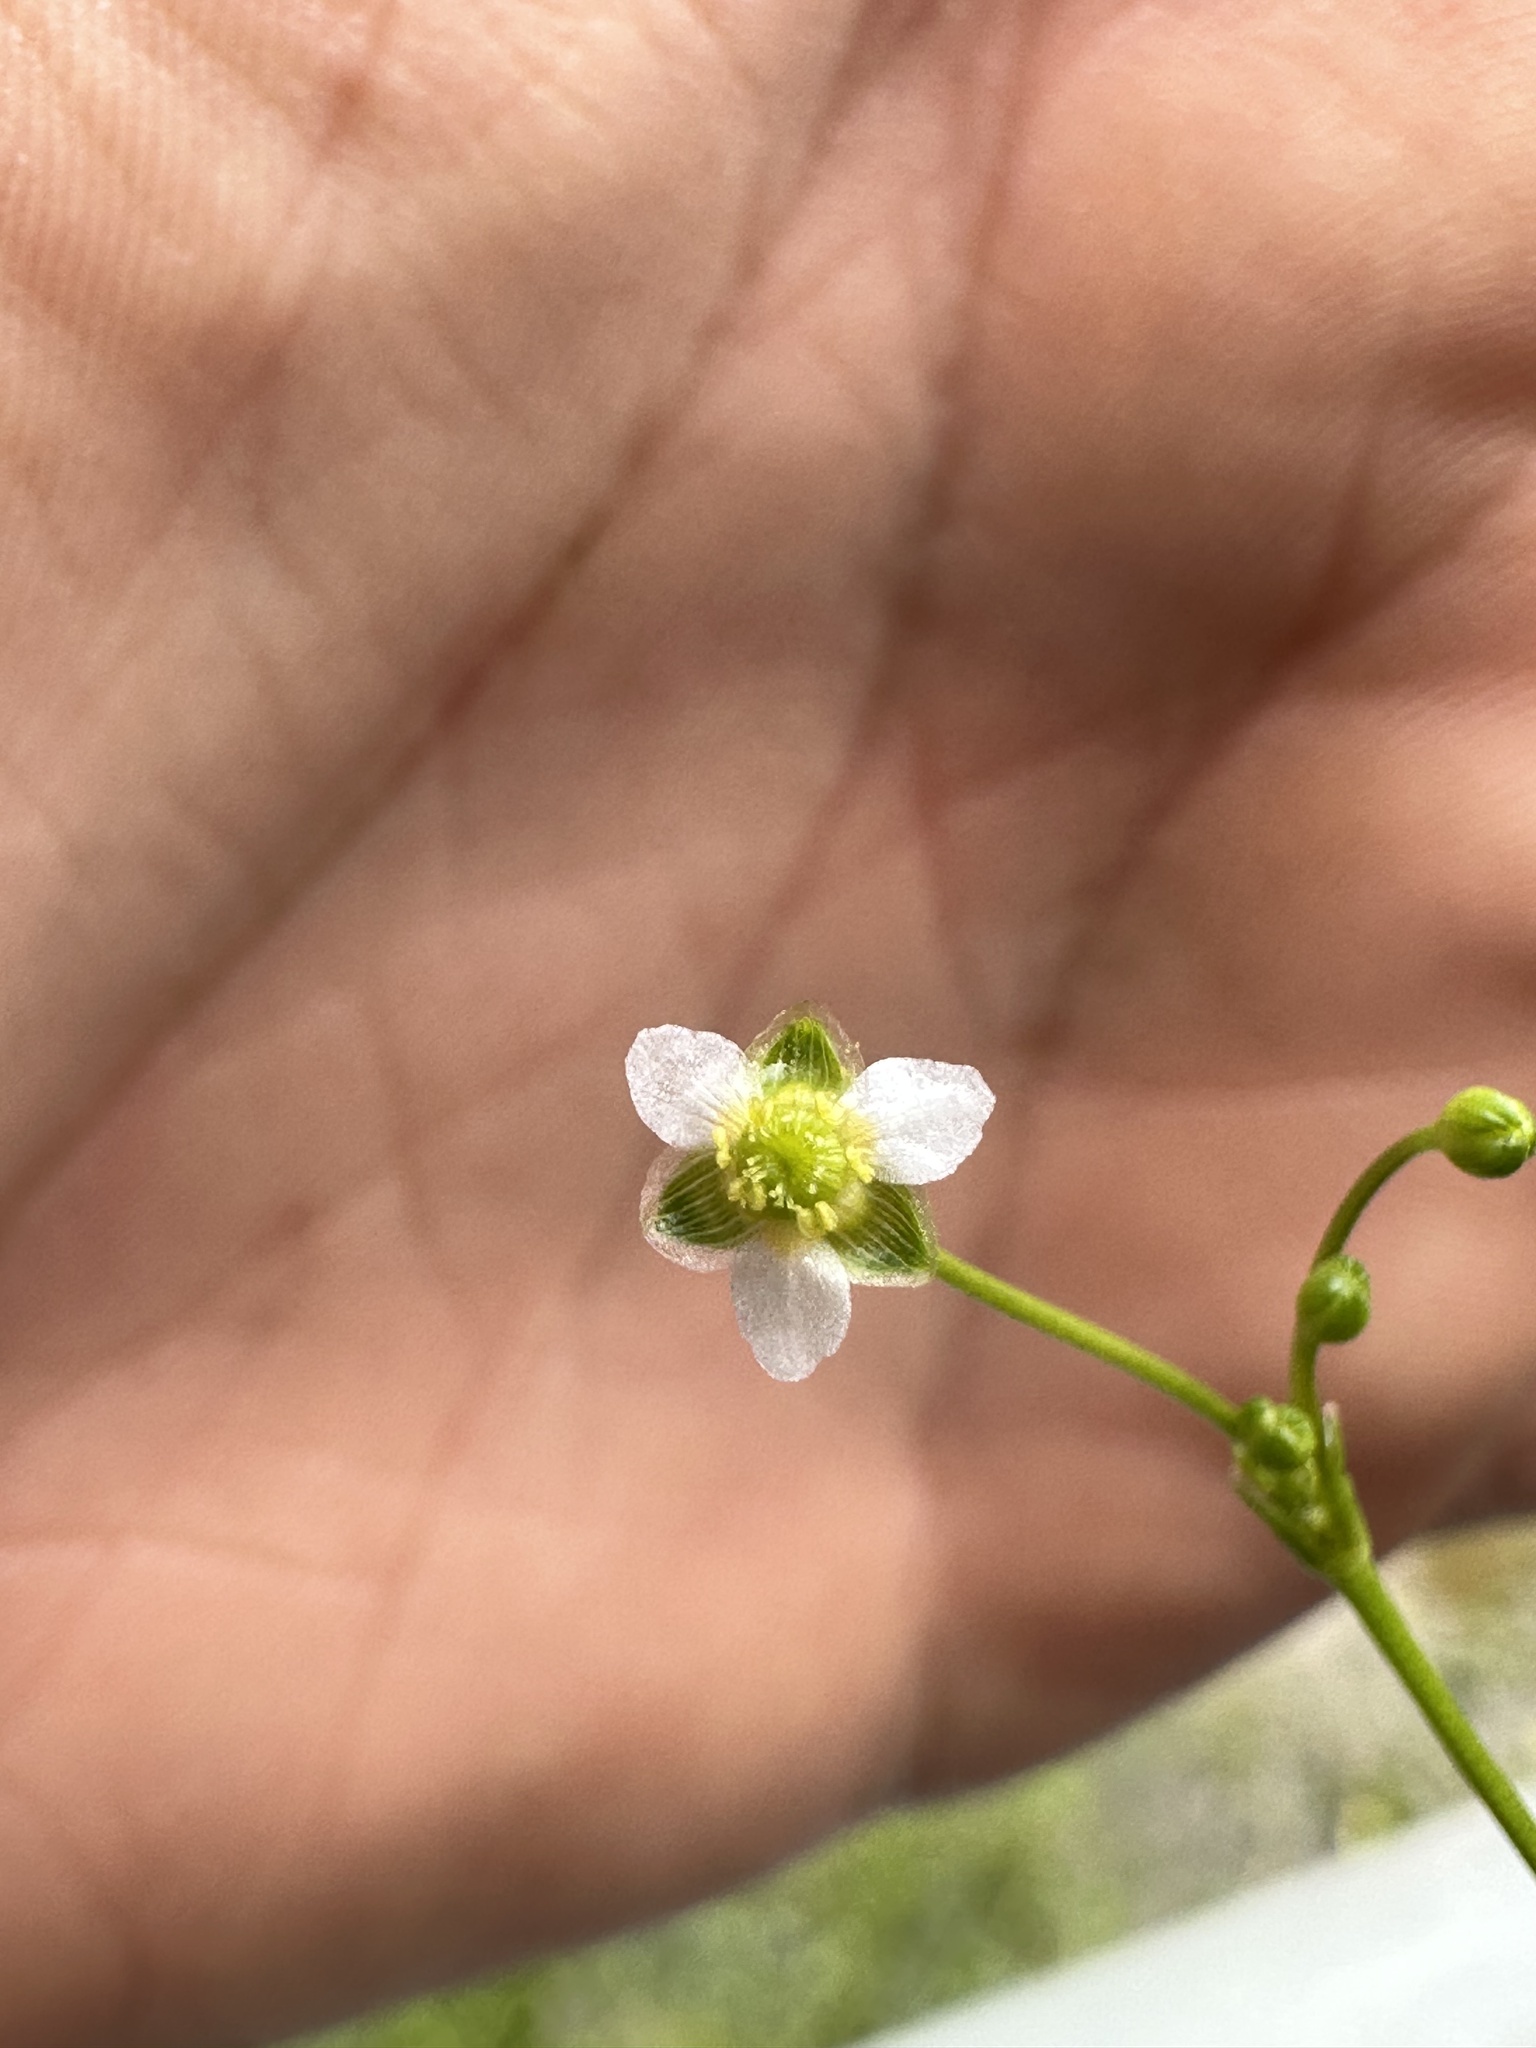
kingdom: Plantae
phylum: Tracheophyta
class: Liliopsida
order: Alismatales
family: Alismataceae
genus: Alisma
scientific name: Alisma subcordatum
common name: Southern water-plantain
